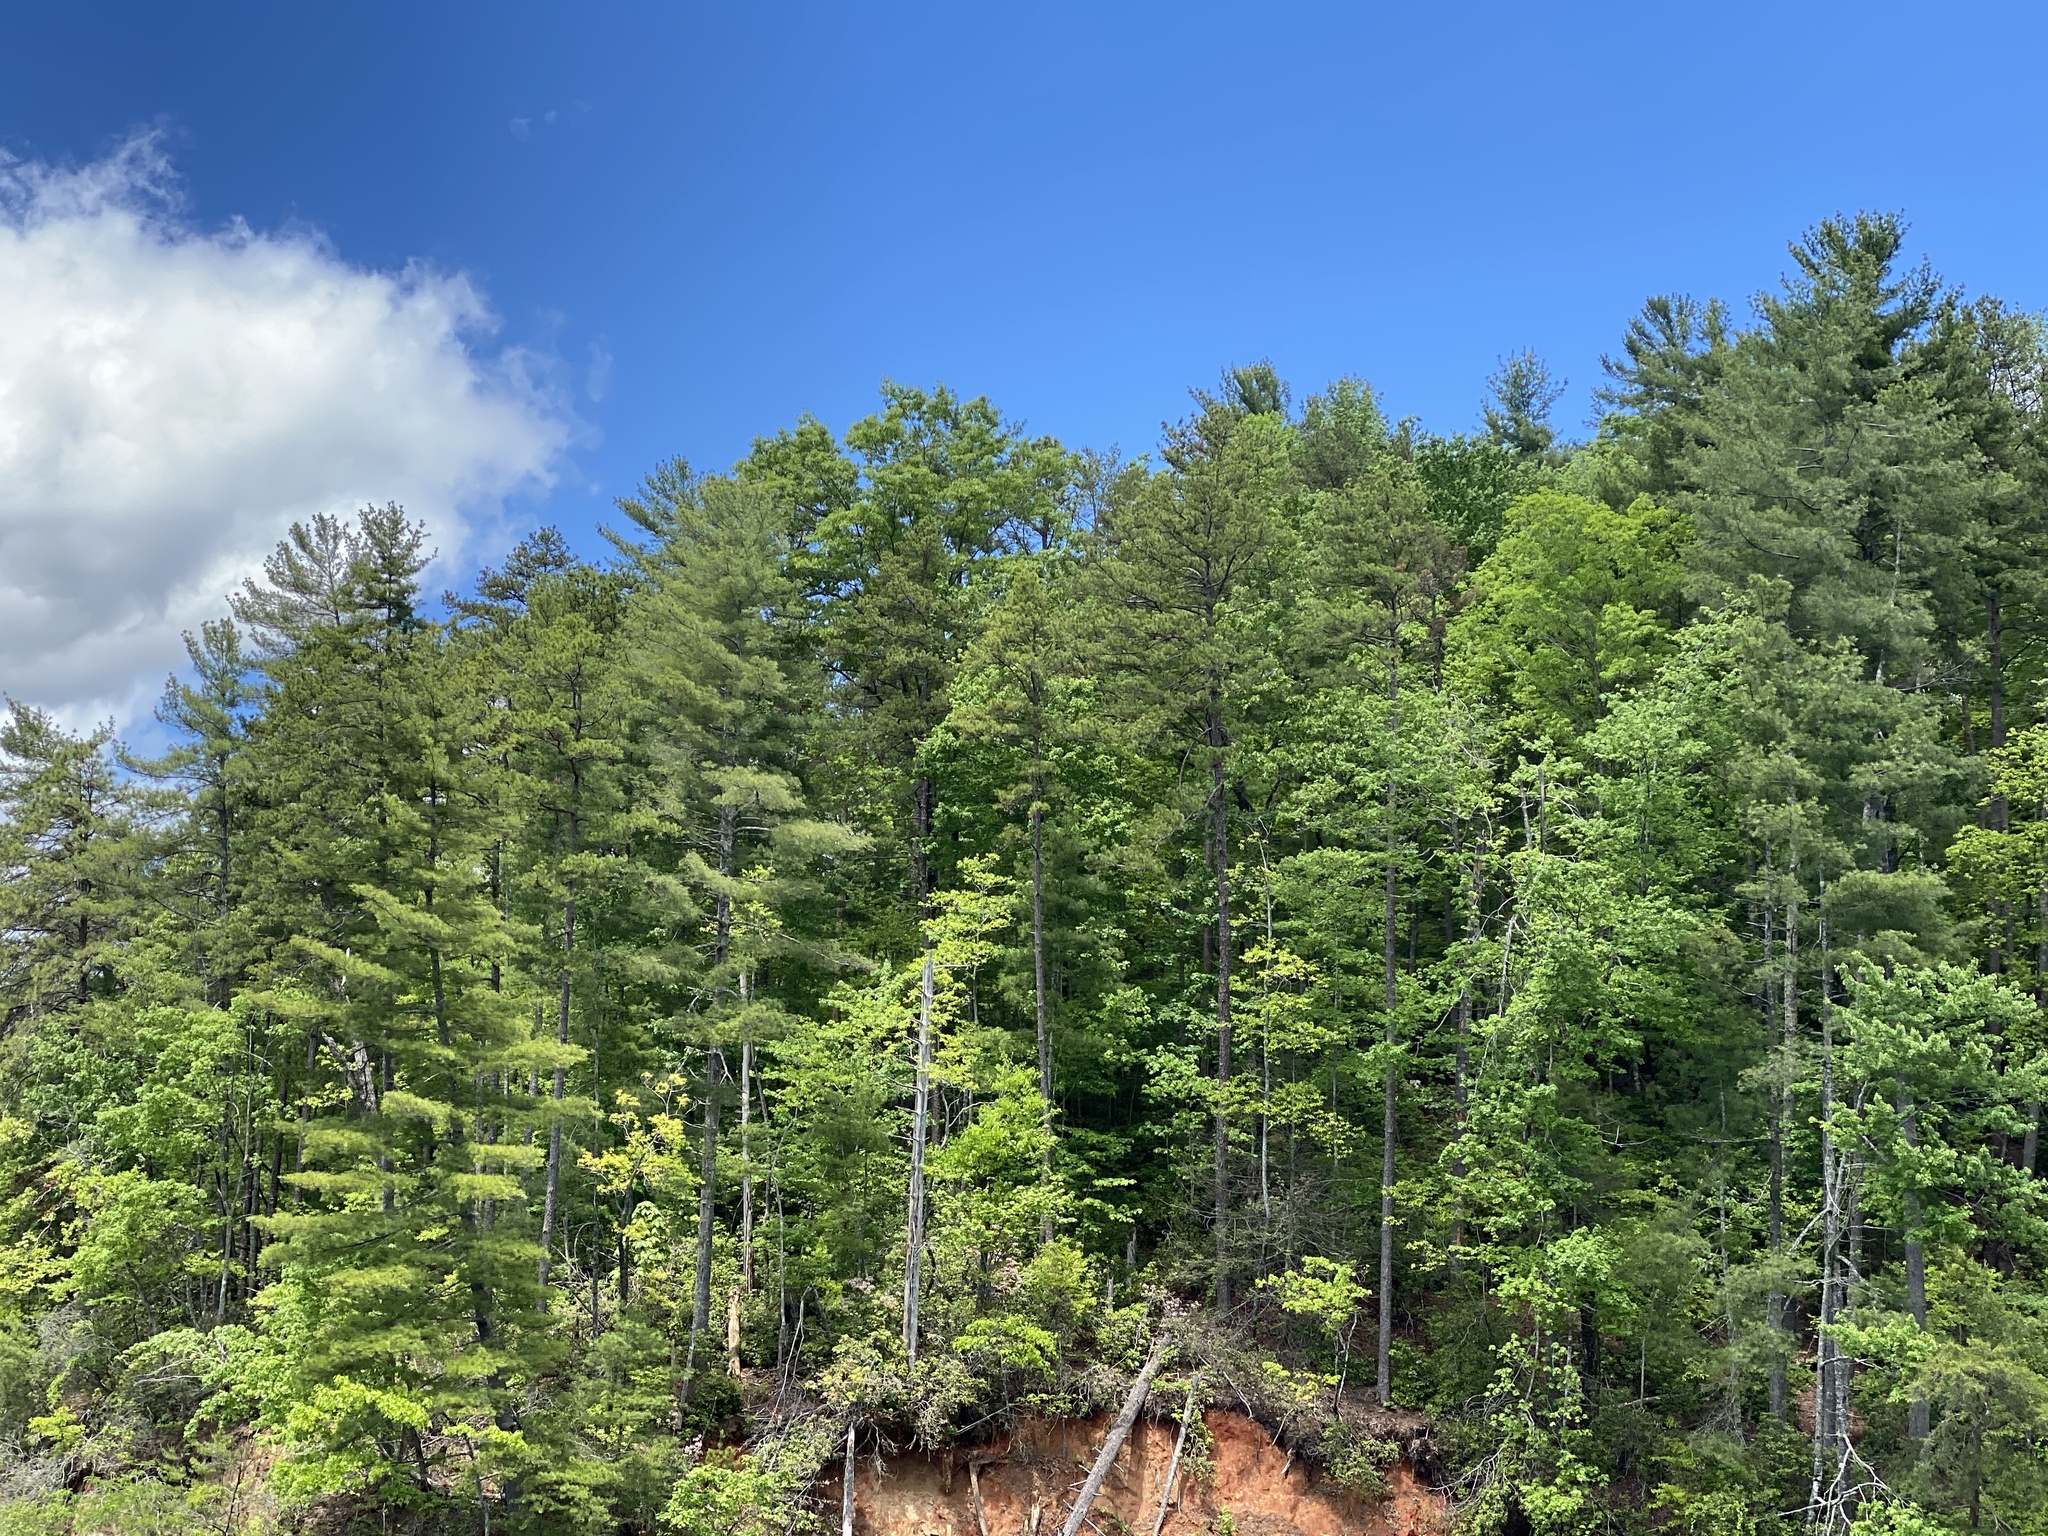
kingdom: Plantae
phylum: Tracheophyta
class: Pinopsida
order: Pinales
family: Pinaceae
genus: Pinus
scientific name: Pinus strobus
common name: Weymouth pine
